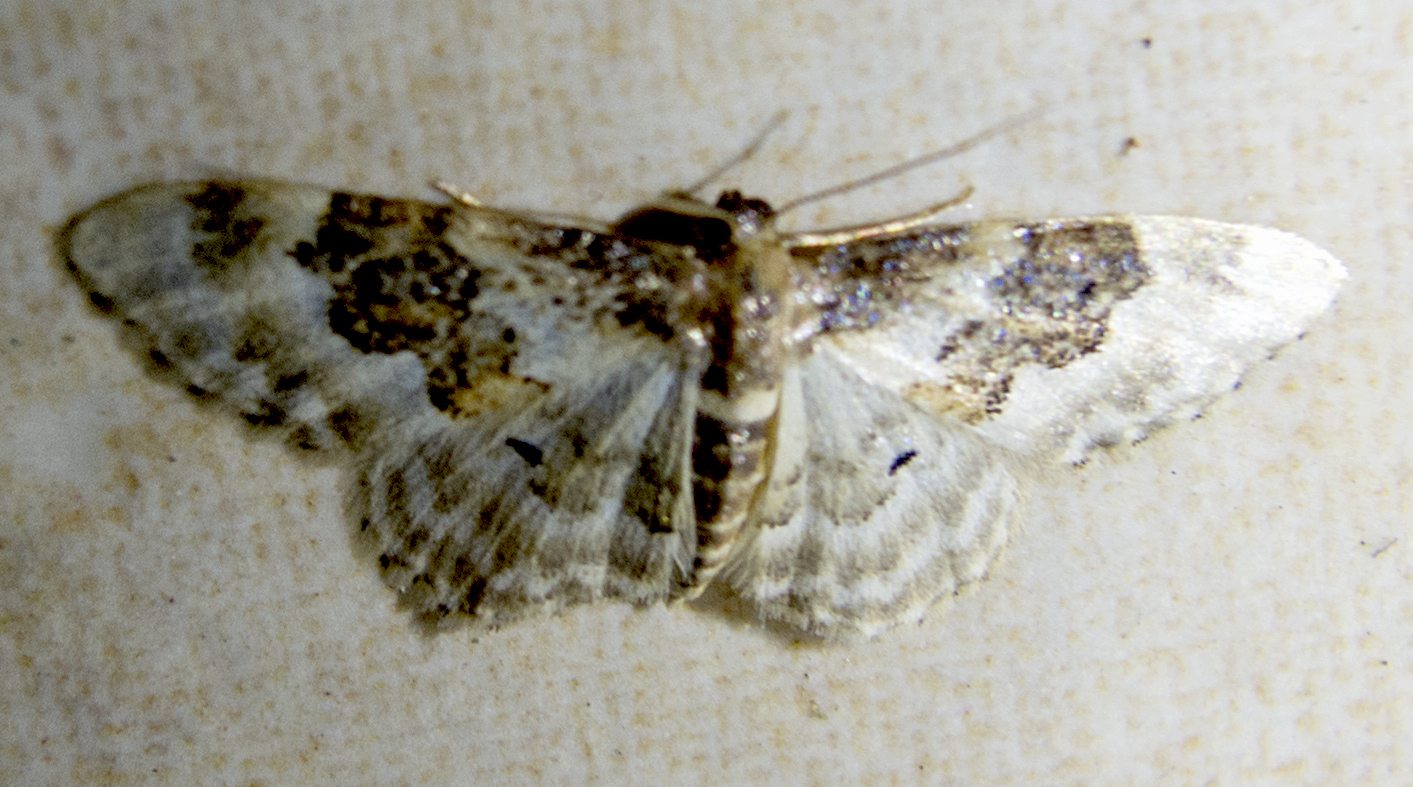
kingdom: Animalia
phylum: Arthropoda
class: Insecta
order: Lepidoptera
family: Geometridae
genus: Idaea
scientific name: Idaea rusticata
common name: Least carpet
